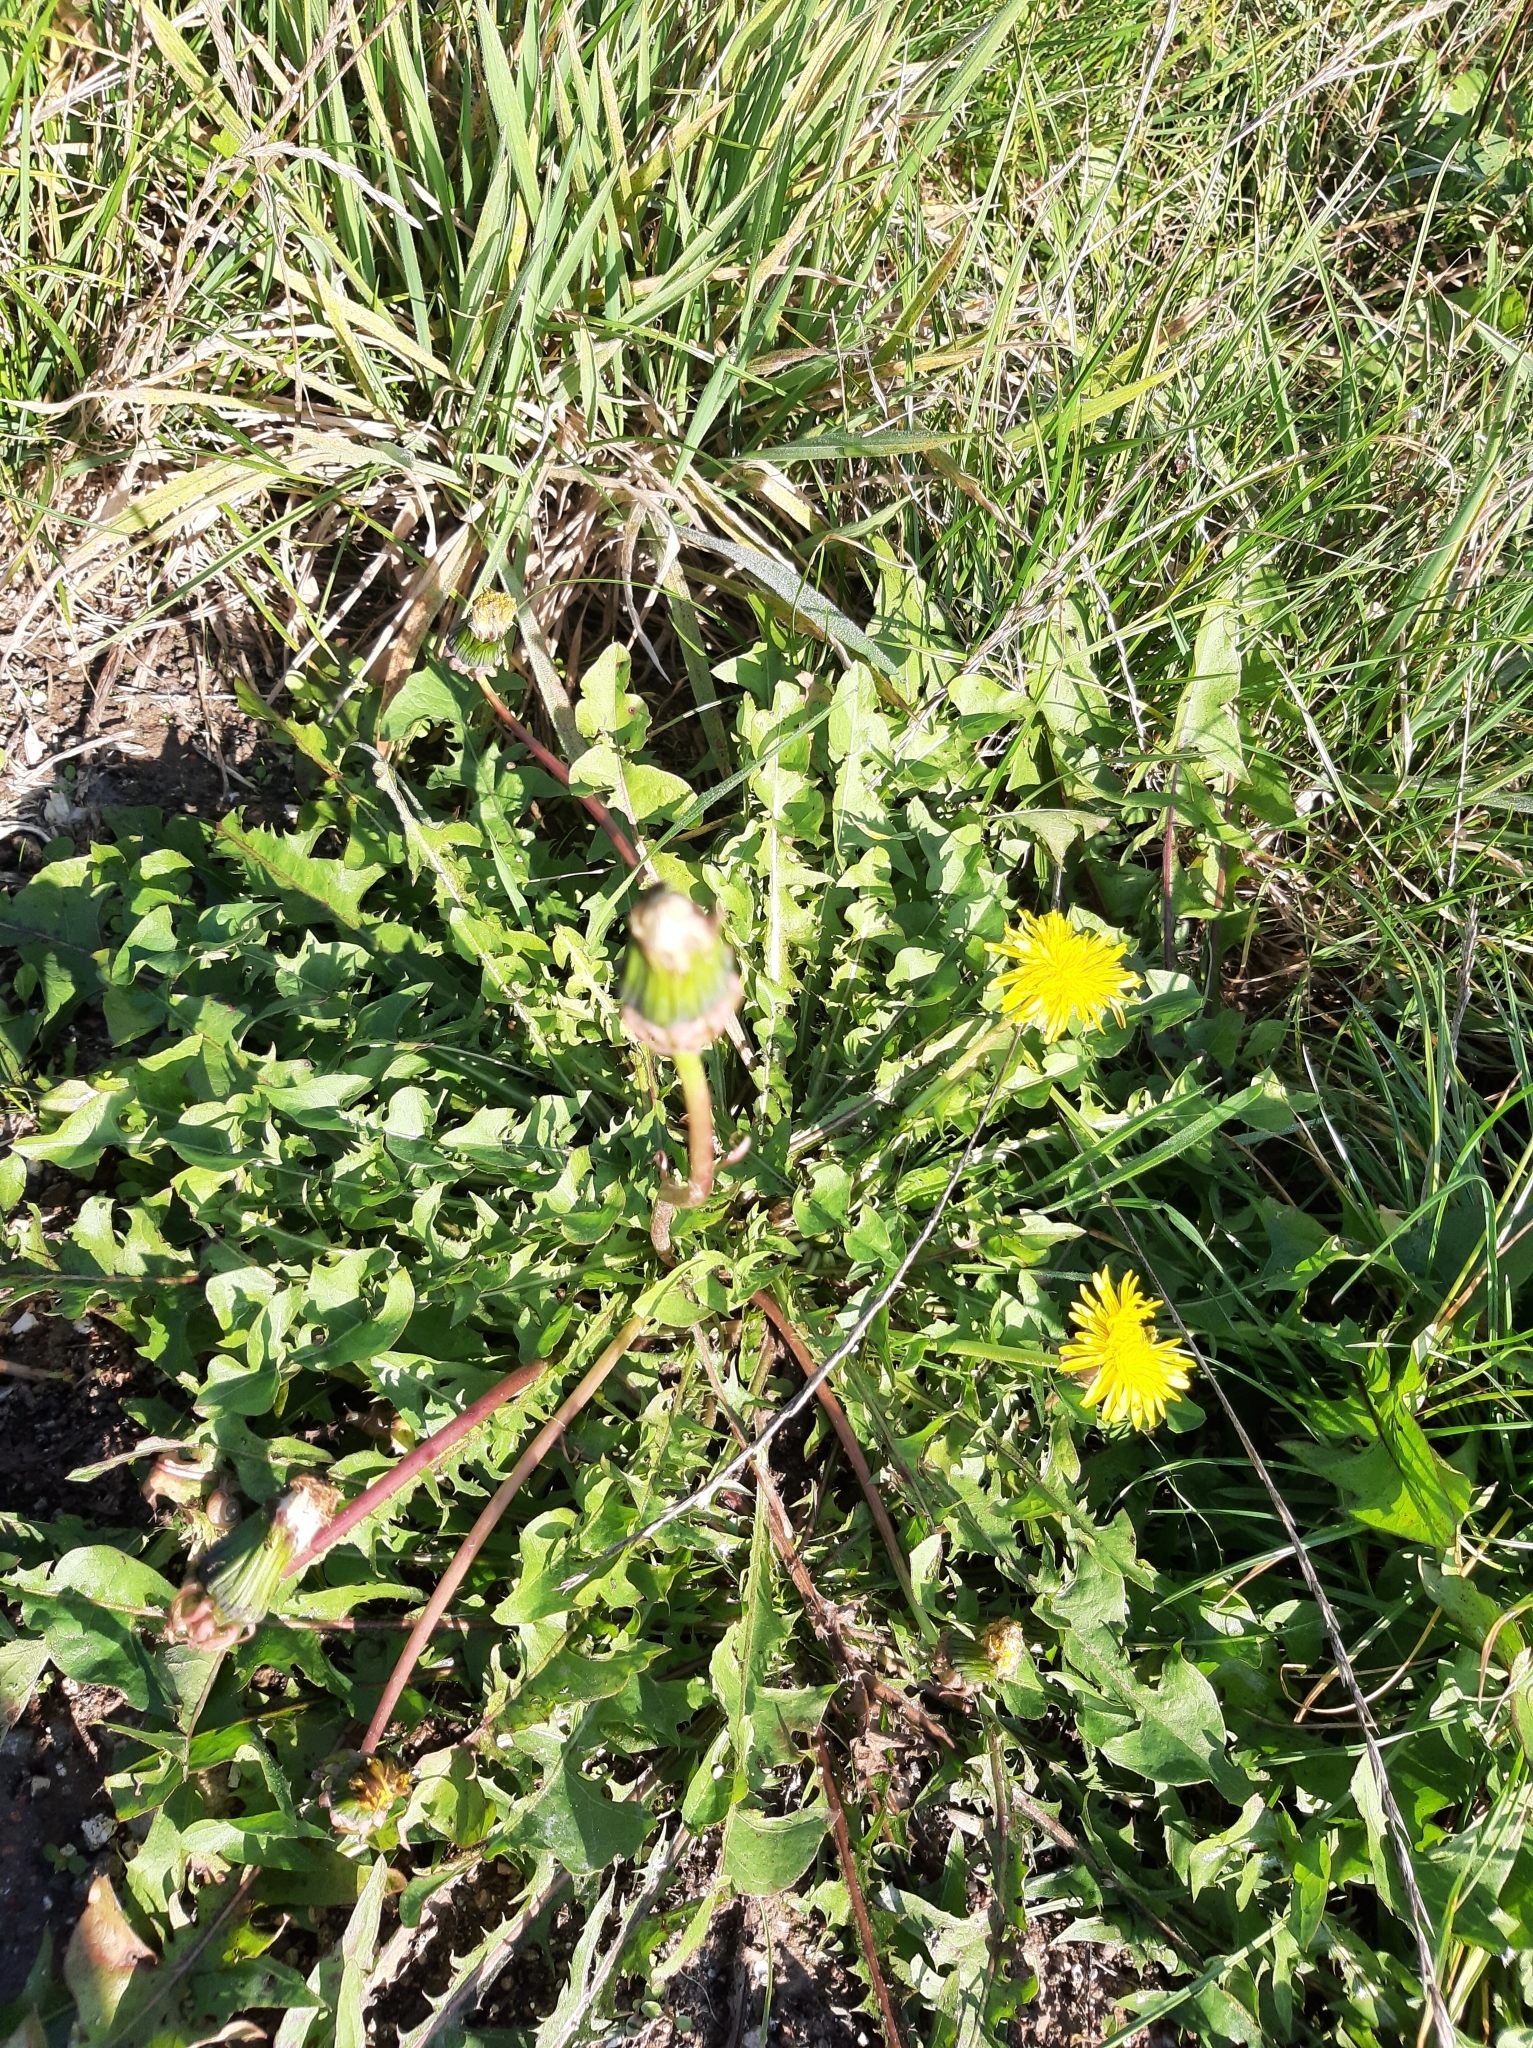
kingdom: Plantae
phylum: Tracheophyta
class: Magnoliopsida
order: Asterales
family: Asteraceae
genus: Taraxacum
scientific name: Taraxacum officinale
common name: Common dandelion
